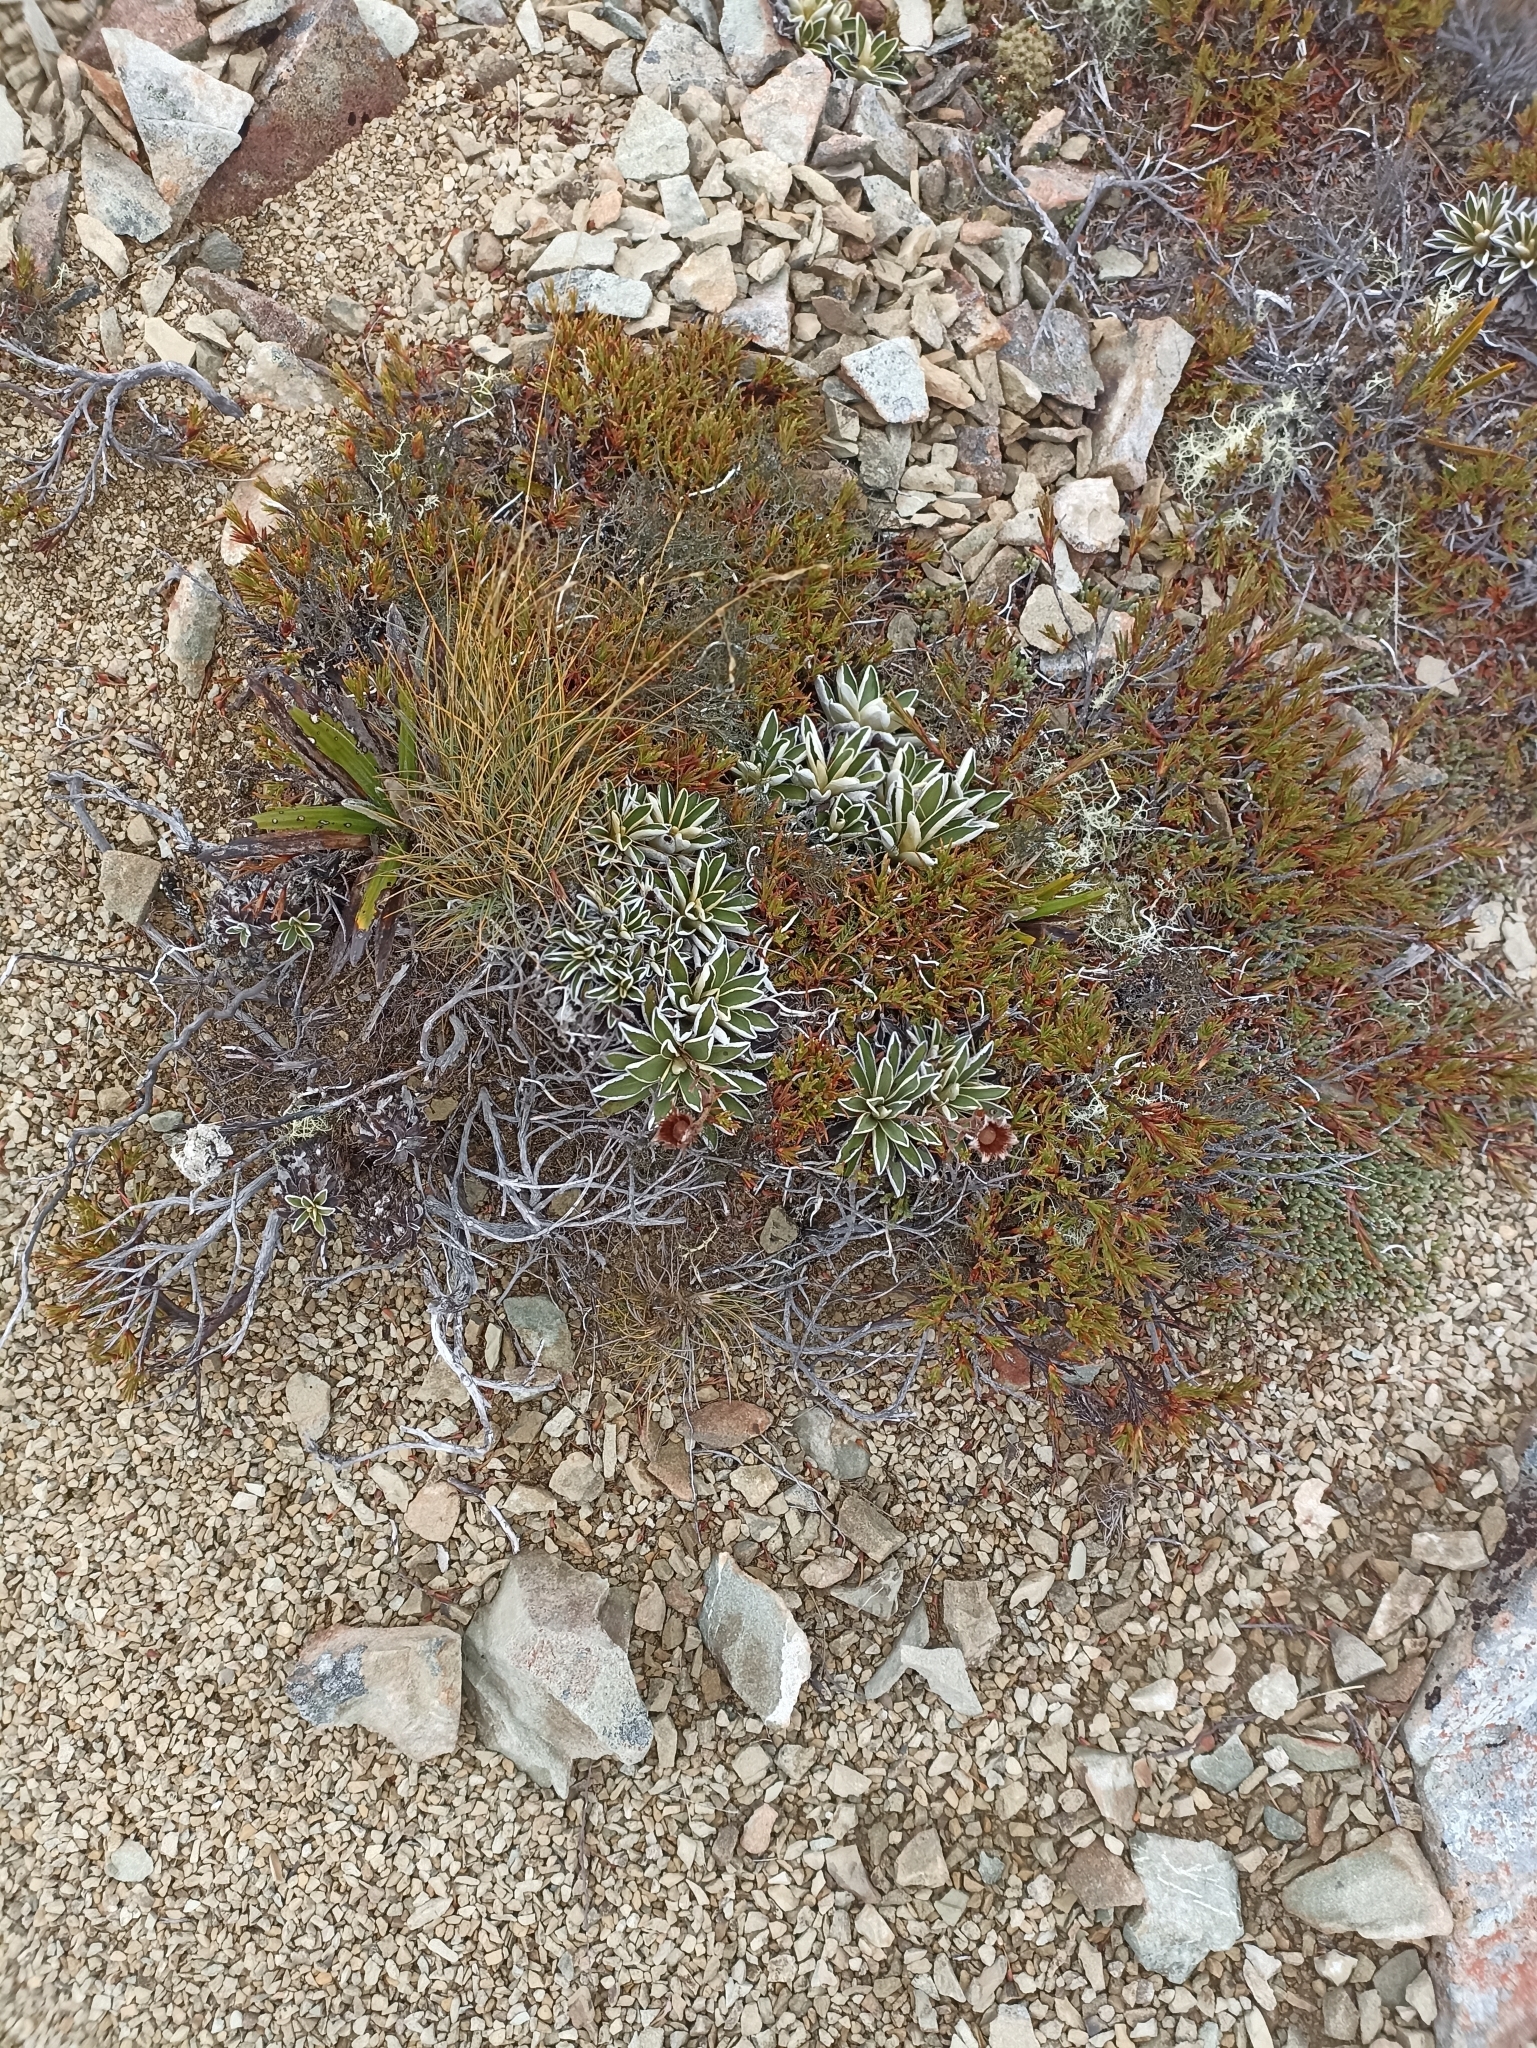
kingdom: Plantae
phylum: Tracheophyta
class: Magnoliopsida
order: Asterales
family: Asteraceae
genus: Celmisia
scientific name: Celmisia hieraciifolia
